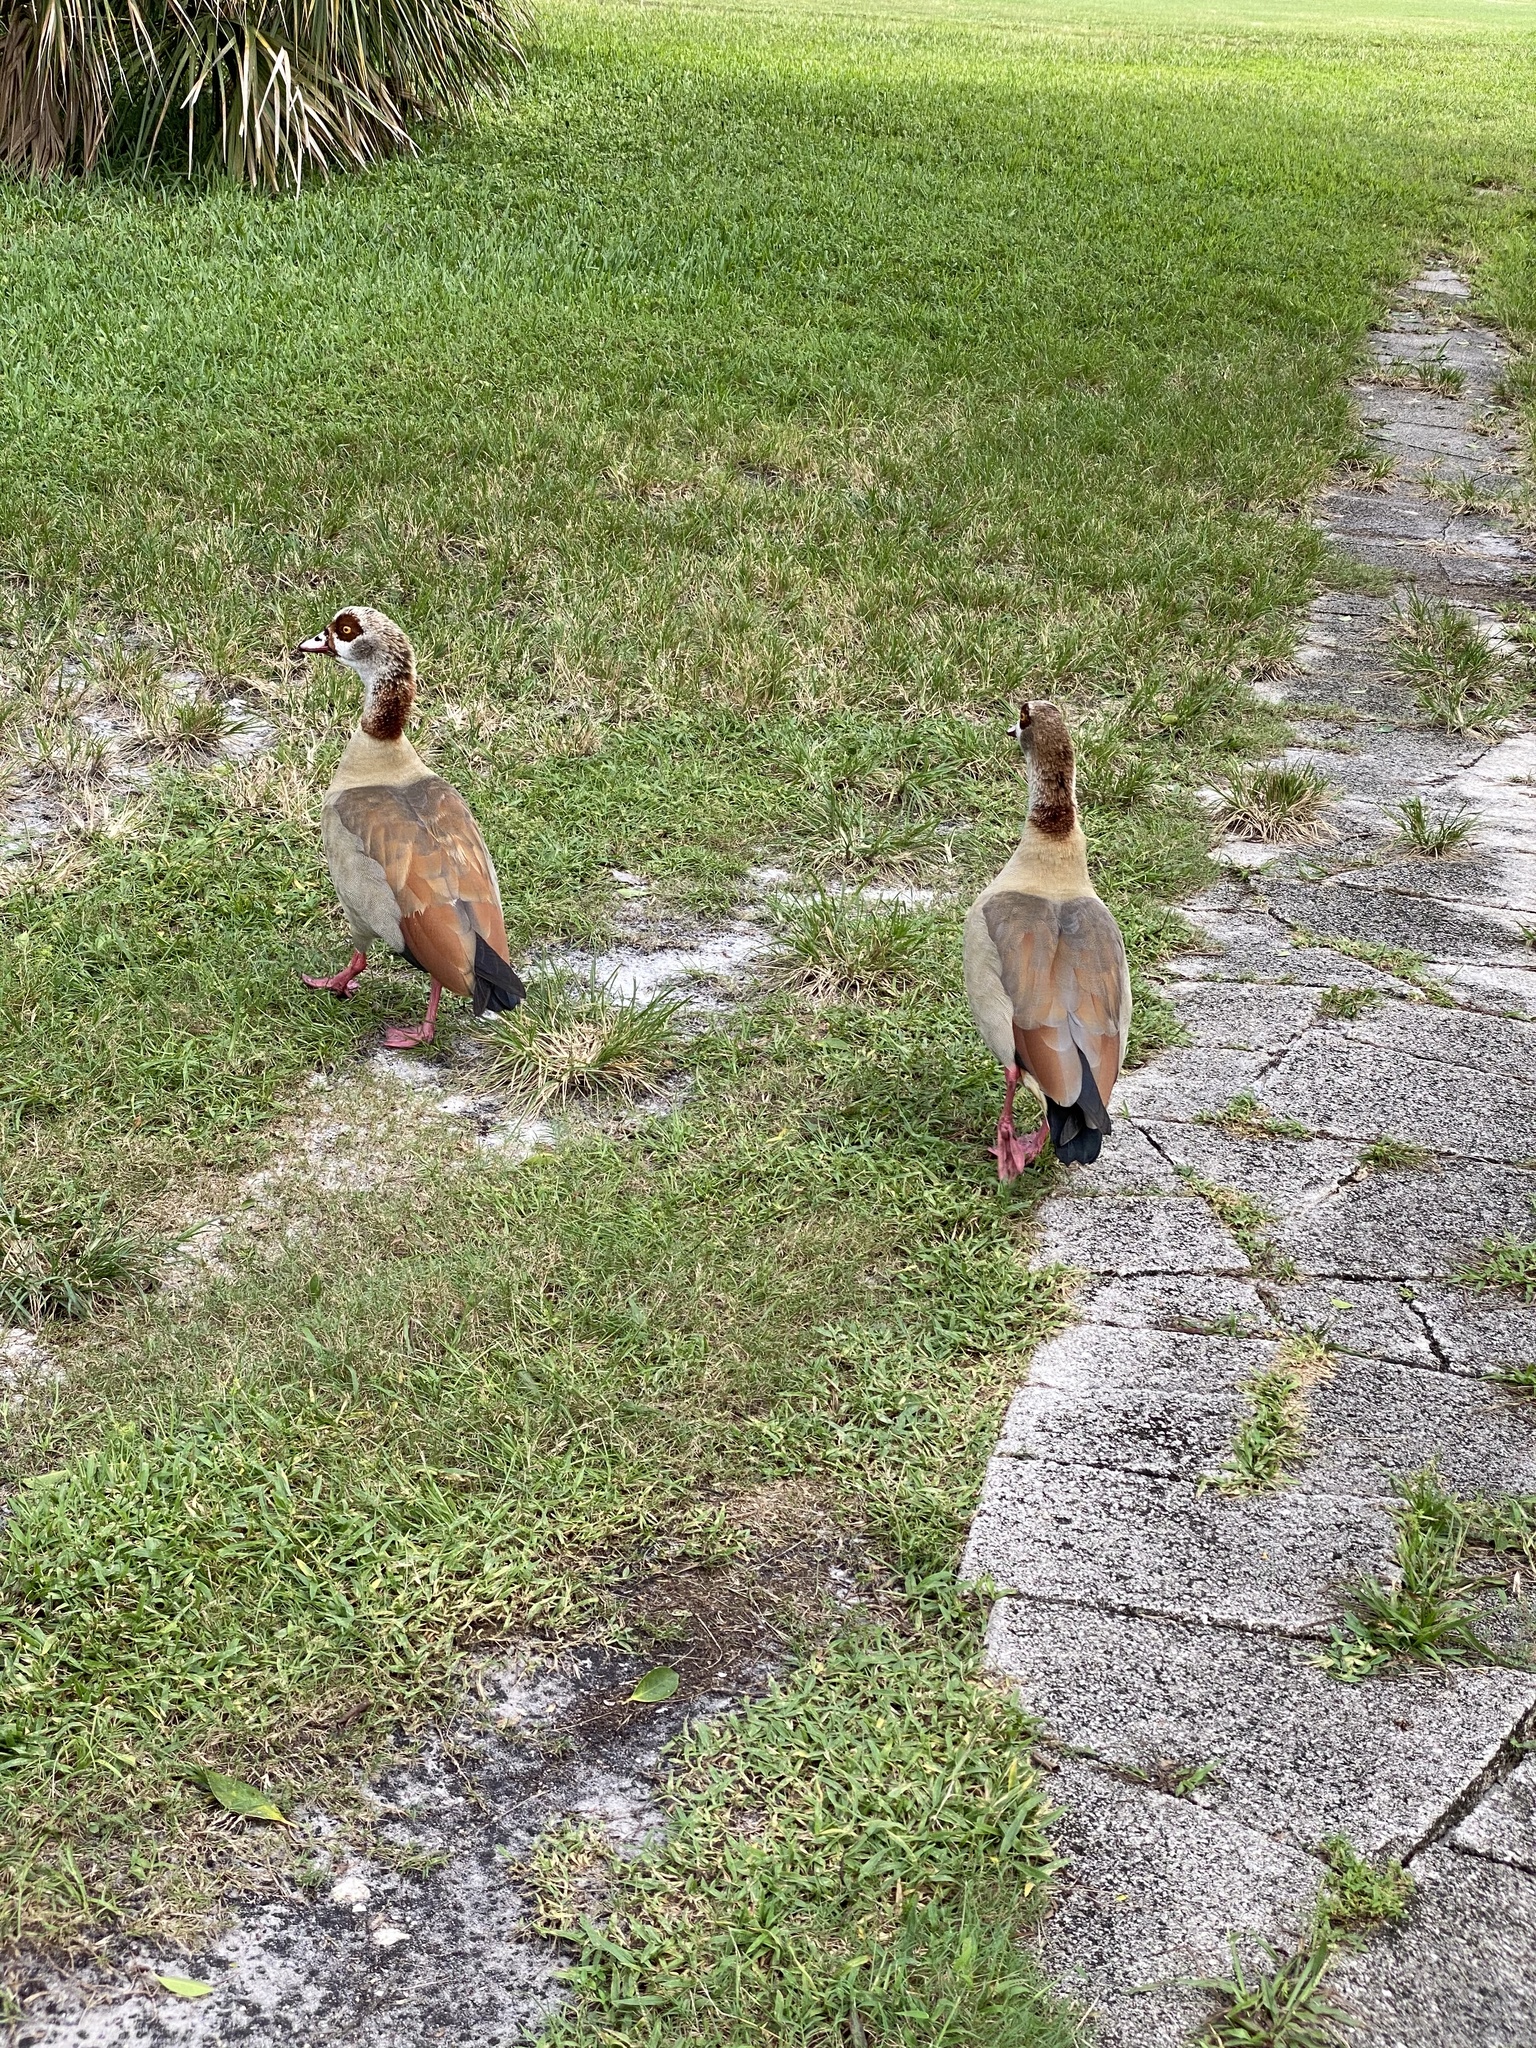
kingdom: Animalia
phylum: Chordata
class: Aves
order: Anseriformes
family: Anatidae
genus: Alopochen
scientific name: Alopochen aegyptiaca
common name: Egyptian goose
